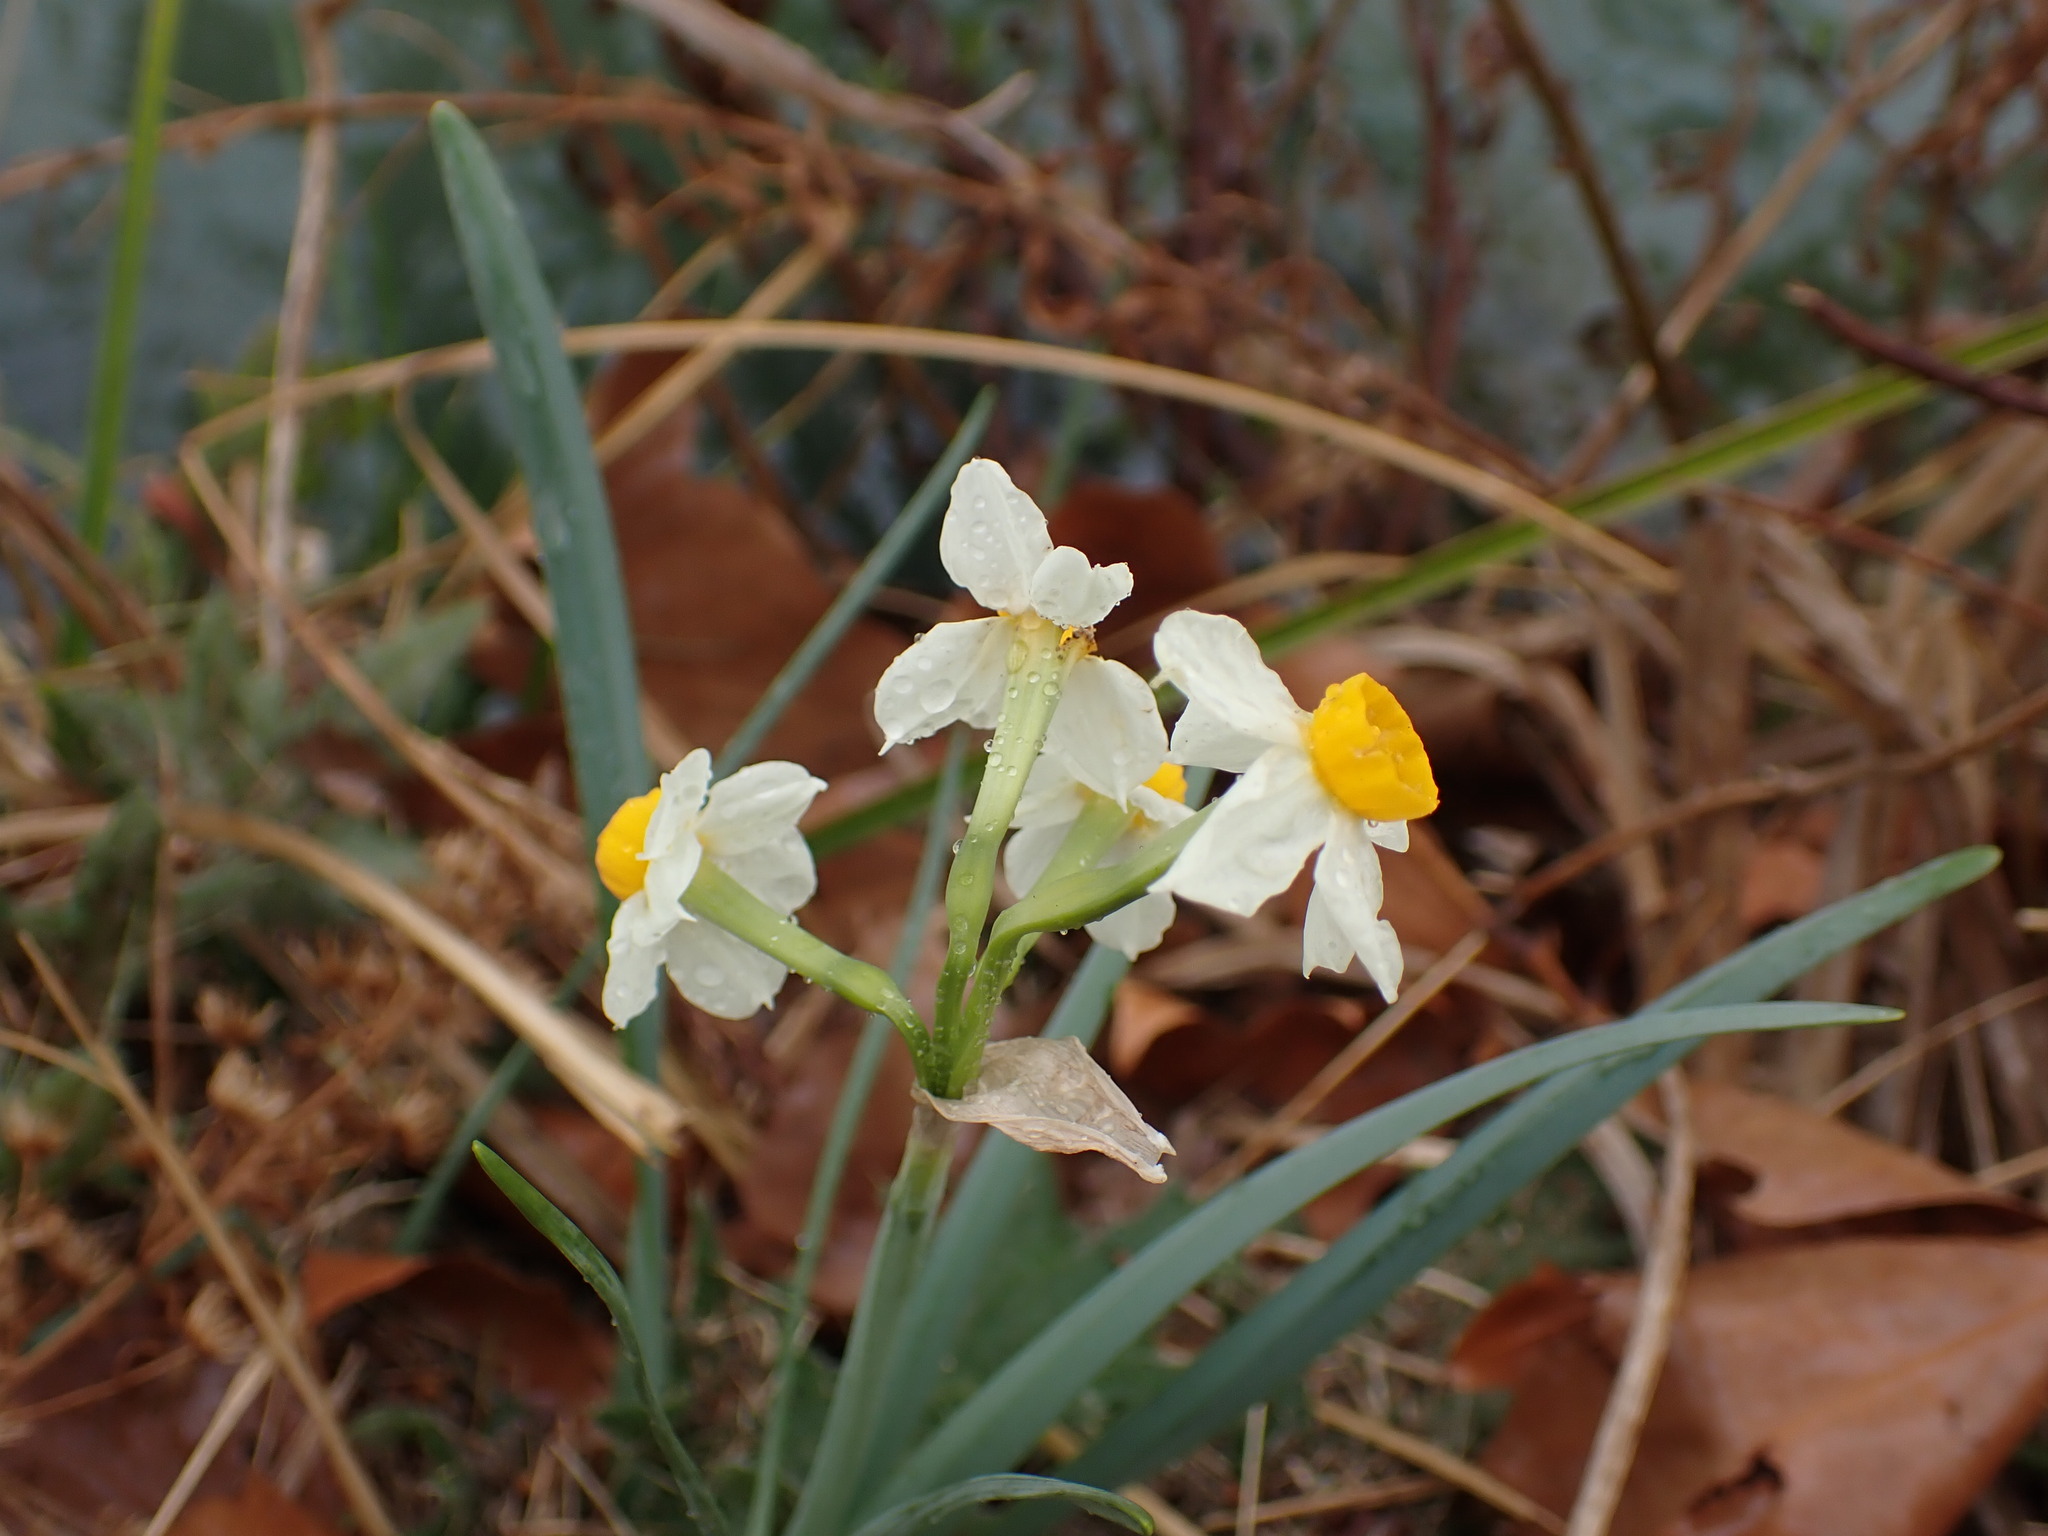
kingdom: Plantae
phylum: Tracheophyta
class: Liliopsida
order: Asparagales
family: Amaryllidaceae
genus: Narcissus
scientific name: Narcissus tazetta
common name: Bunch-flowered daffodil
